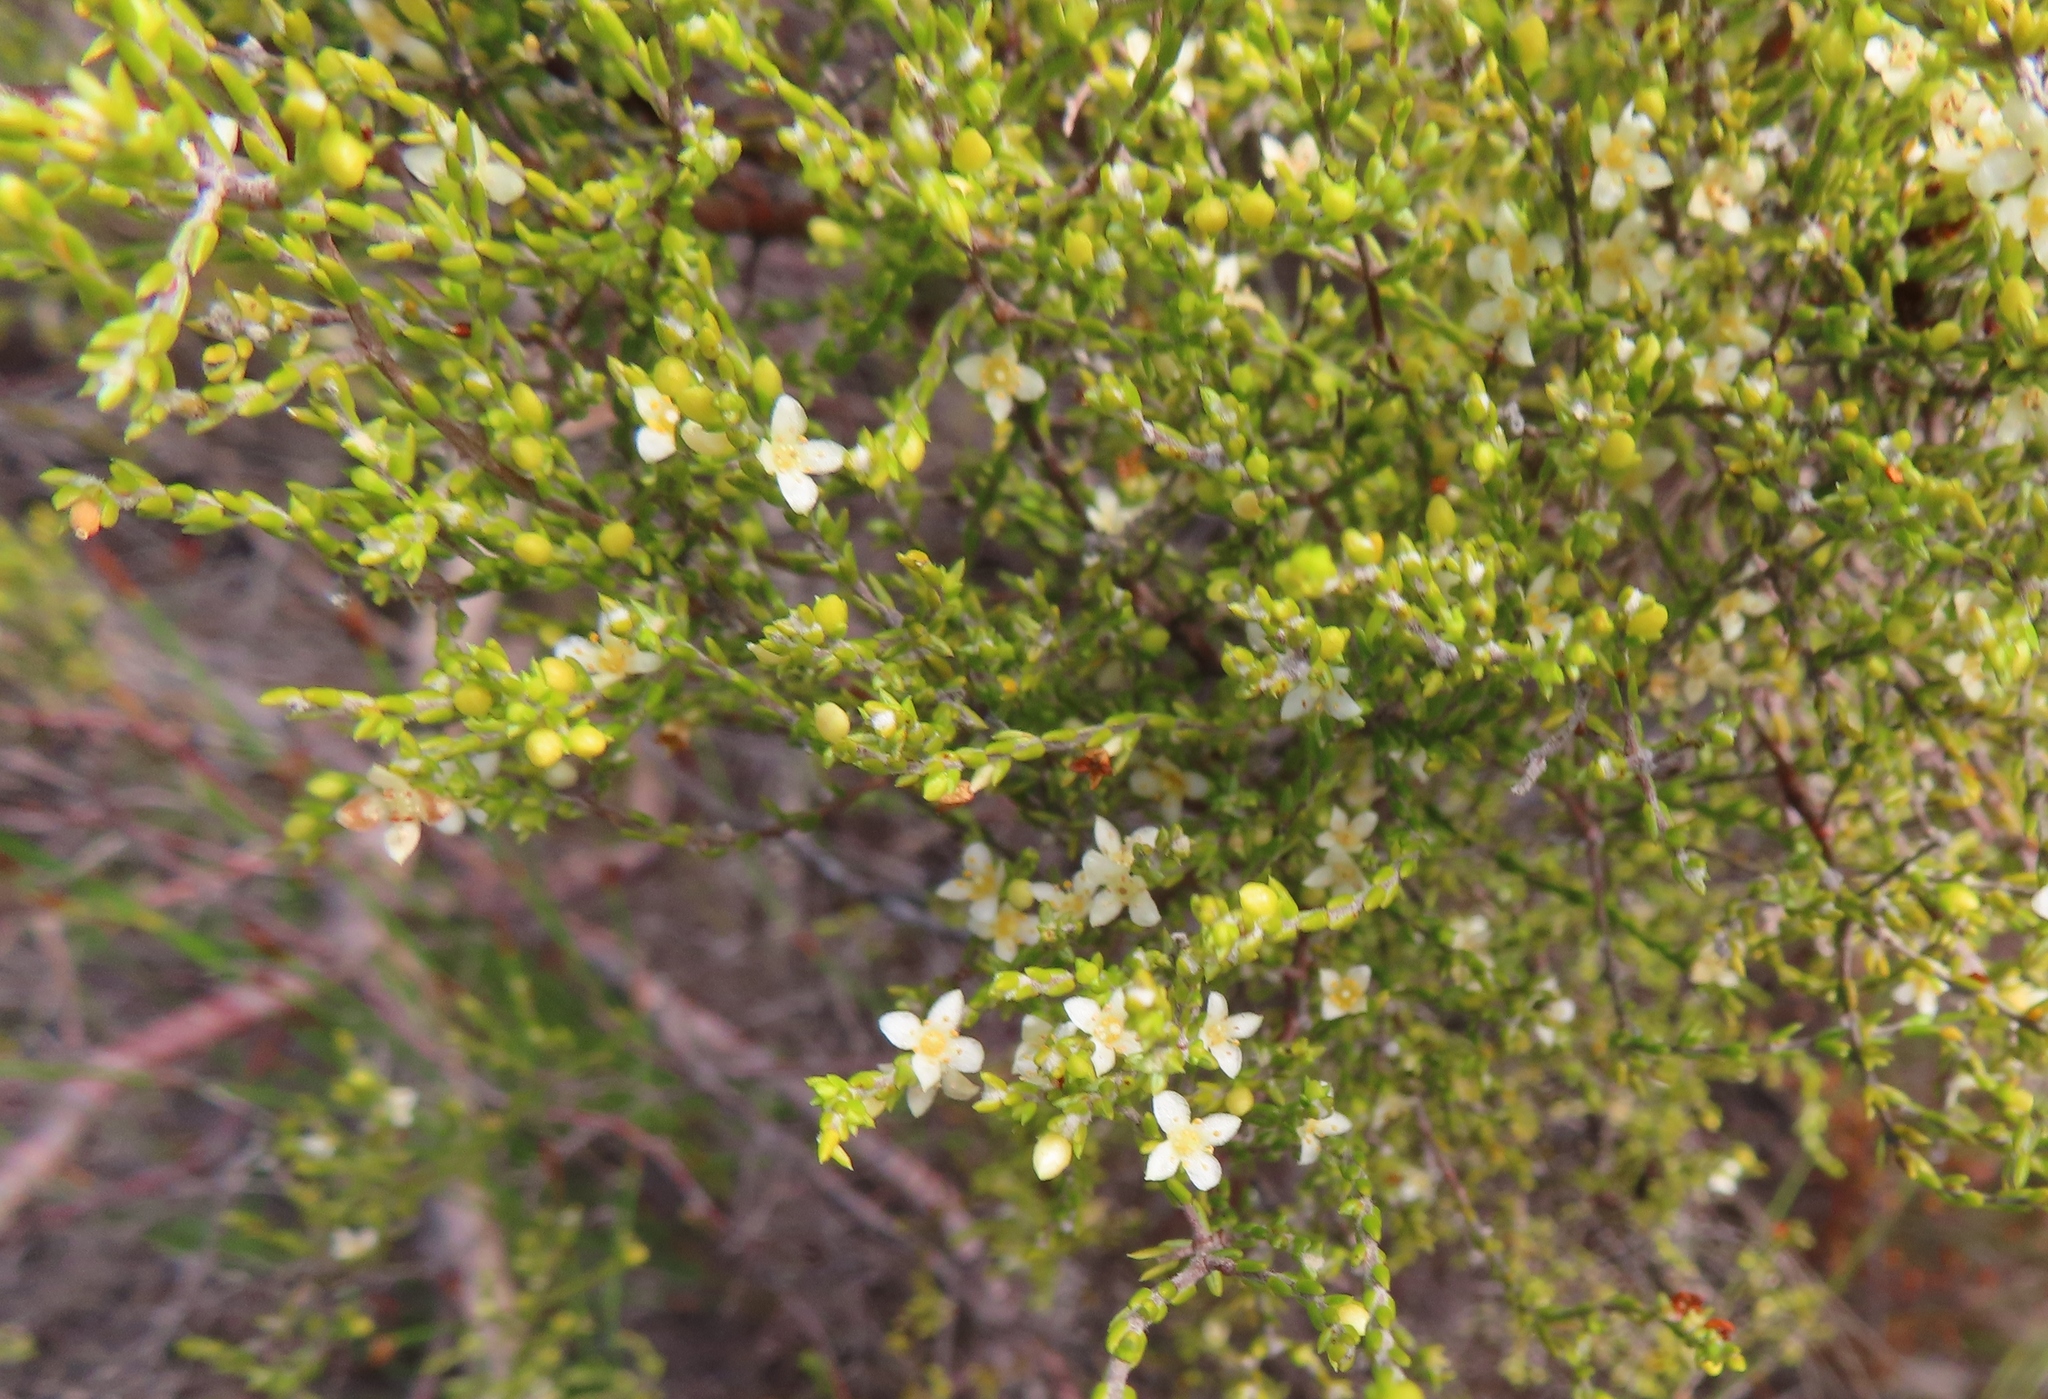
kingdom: Plantae
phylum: Tracheophyta
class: Magnoliopsida
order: Malvales
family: Thymelaeaceae
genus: Lachnaea
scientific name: Lachnaea axillaris
